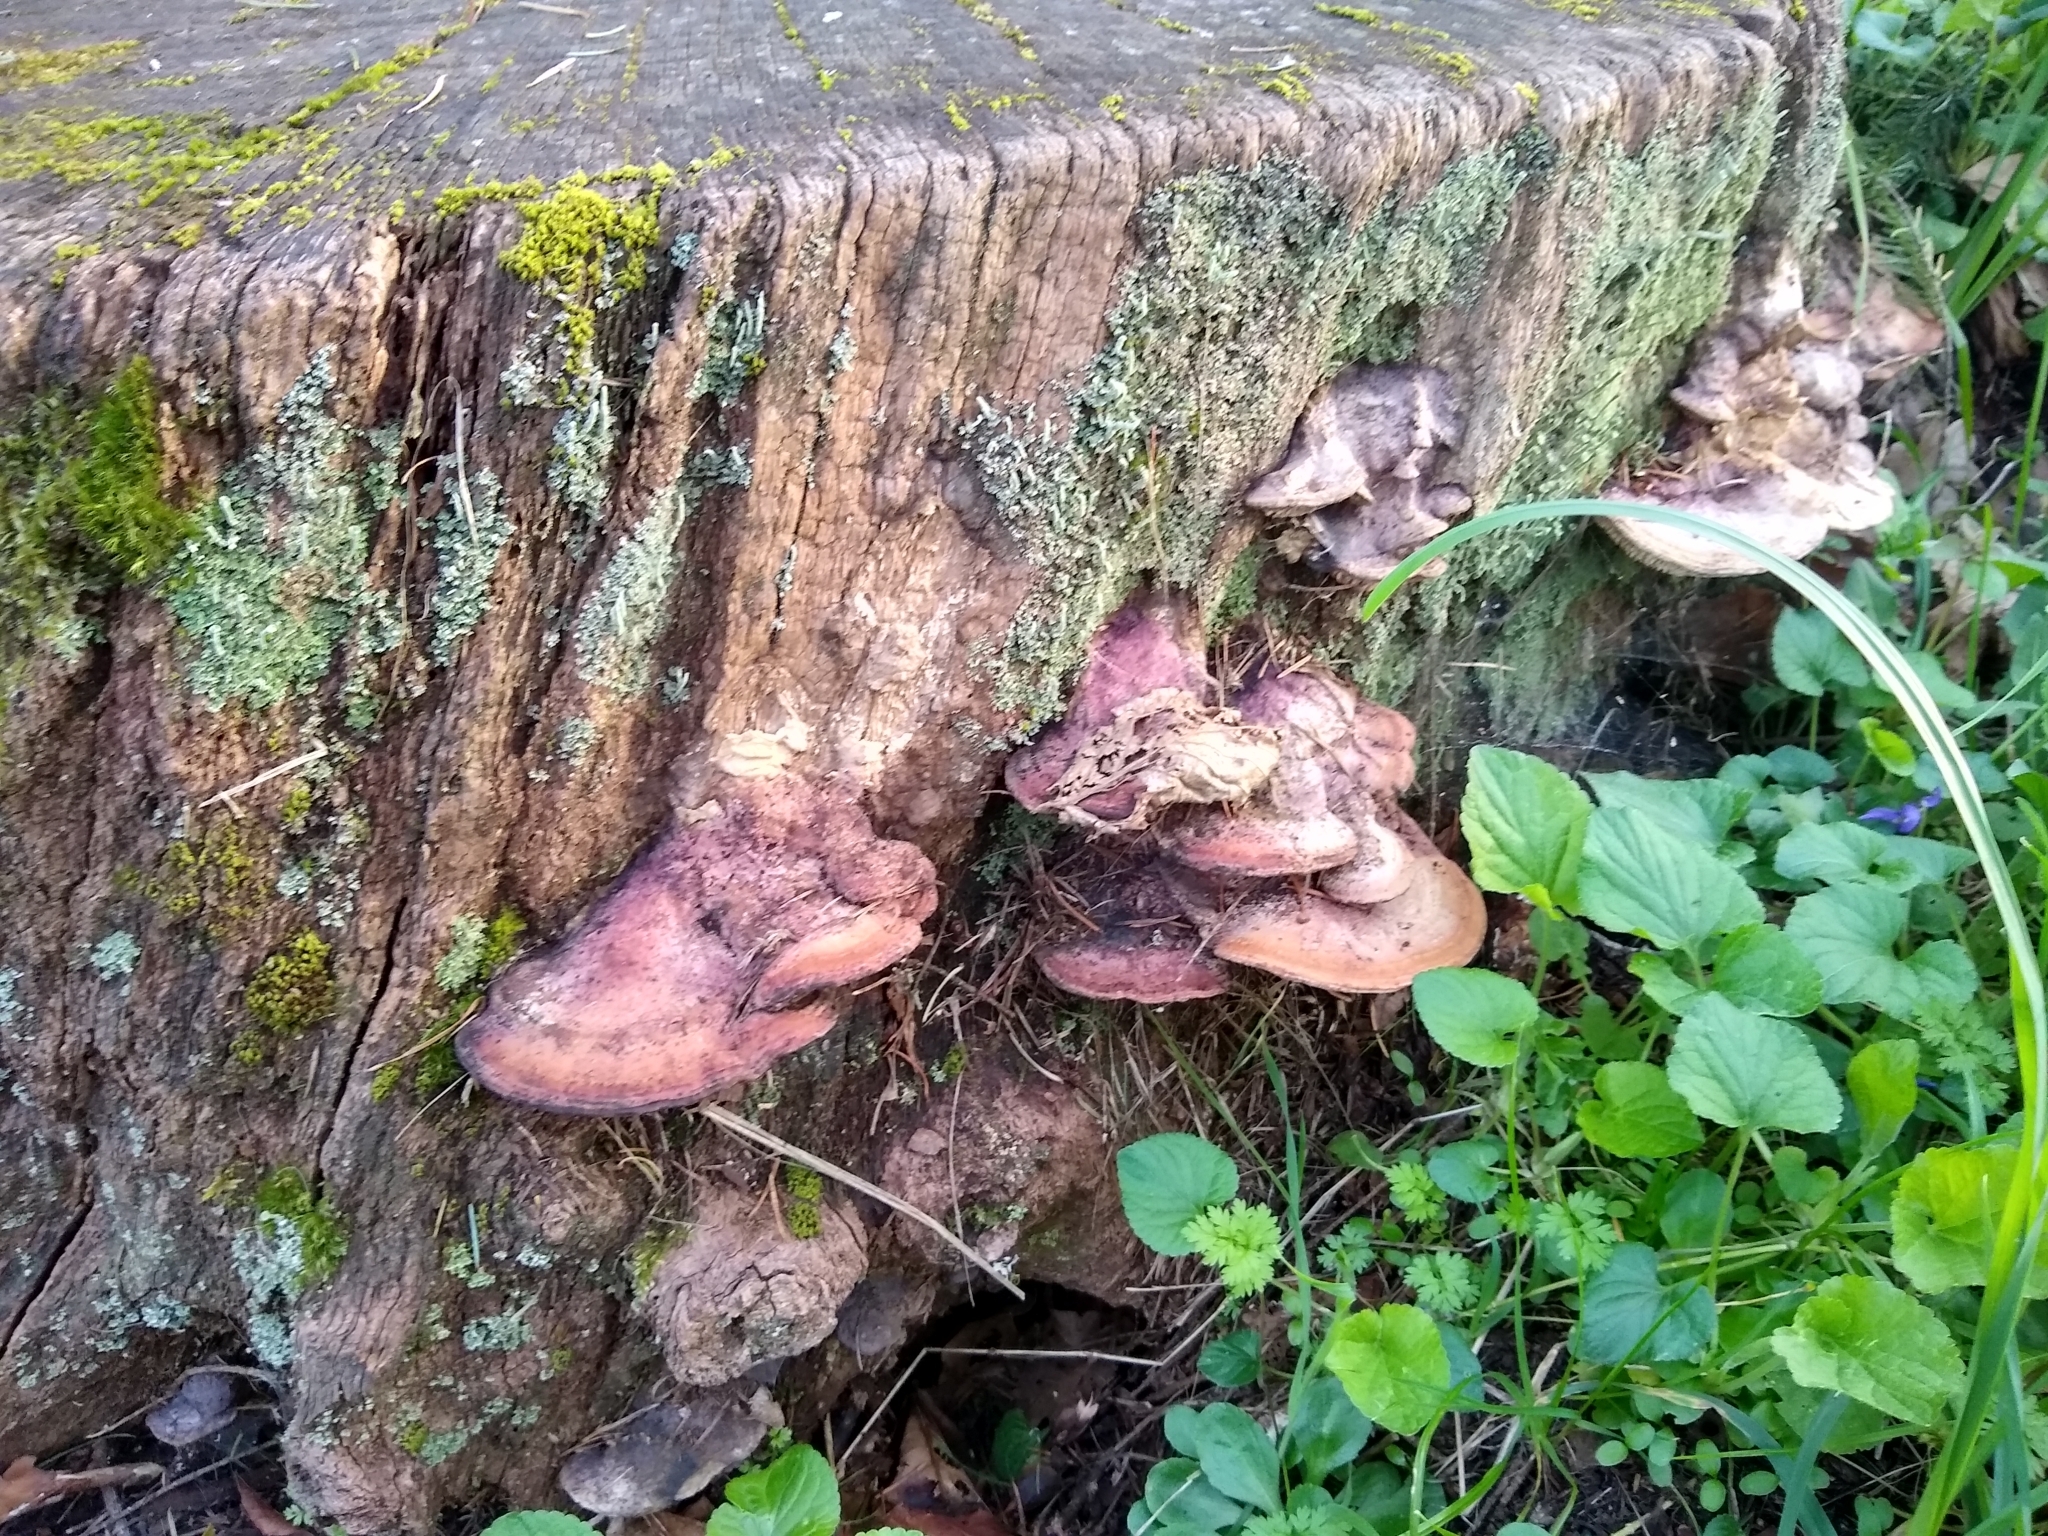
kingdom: Fungi
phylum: Basidiomycota
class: Agaricomycetes
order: Polyporales
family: Fomitopsidaceae
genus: Fomitopsis
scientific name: Fomitopsis
